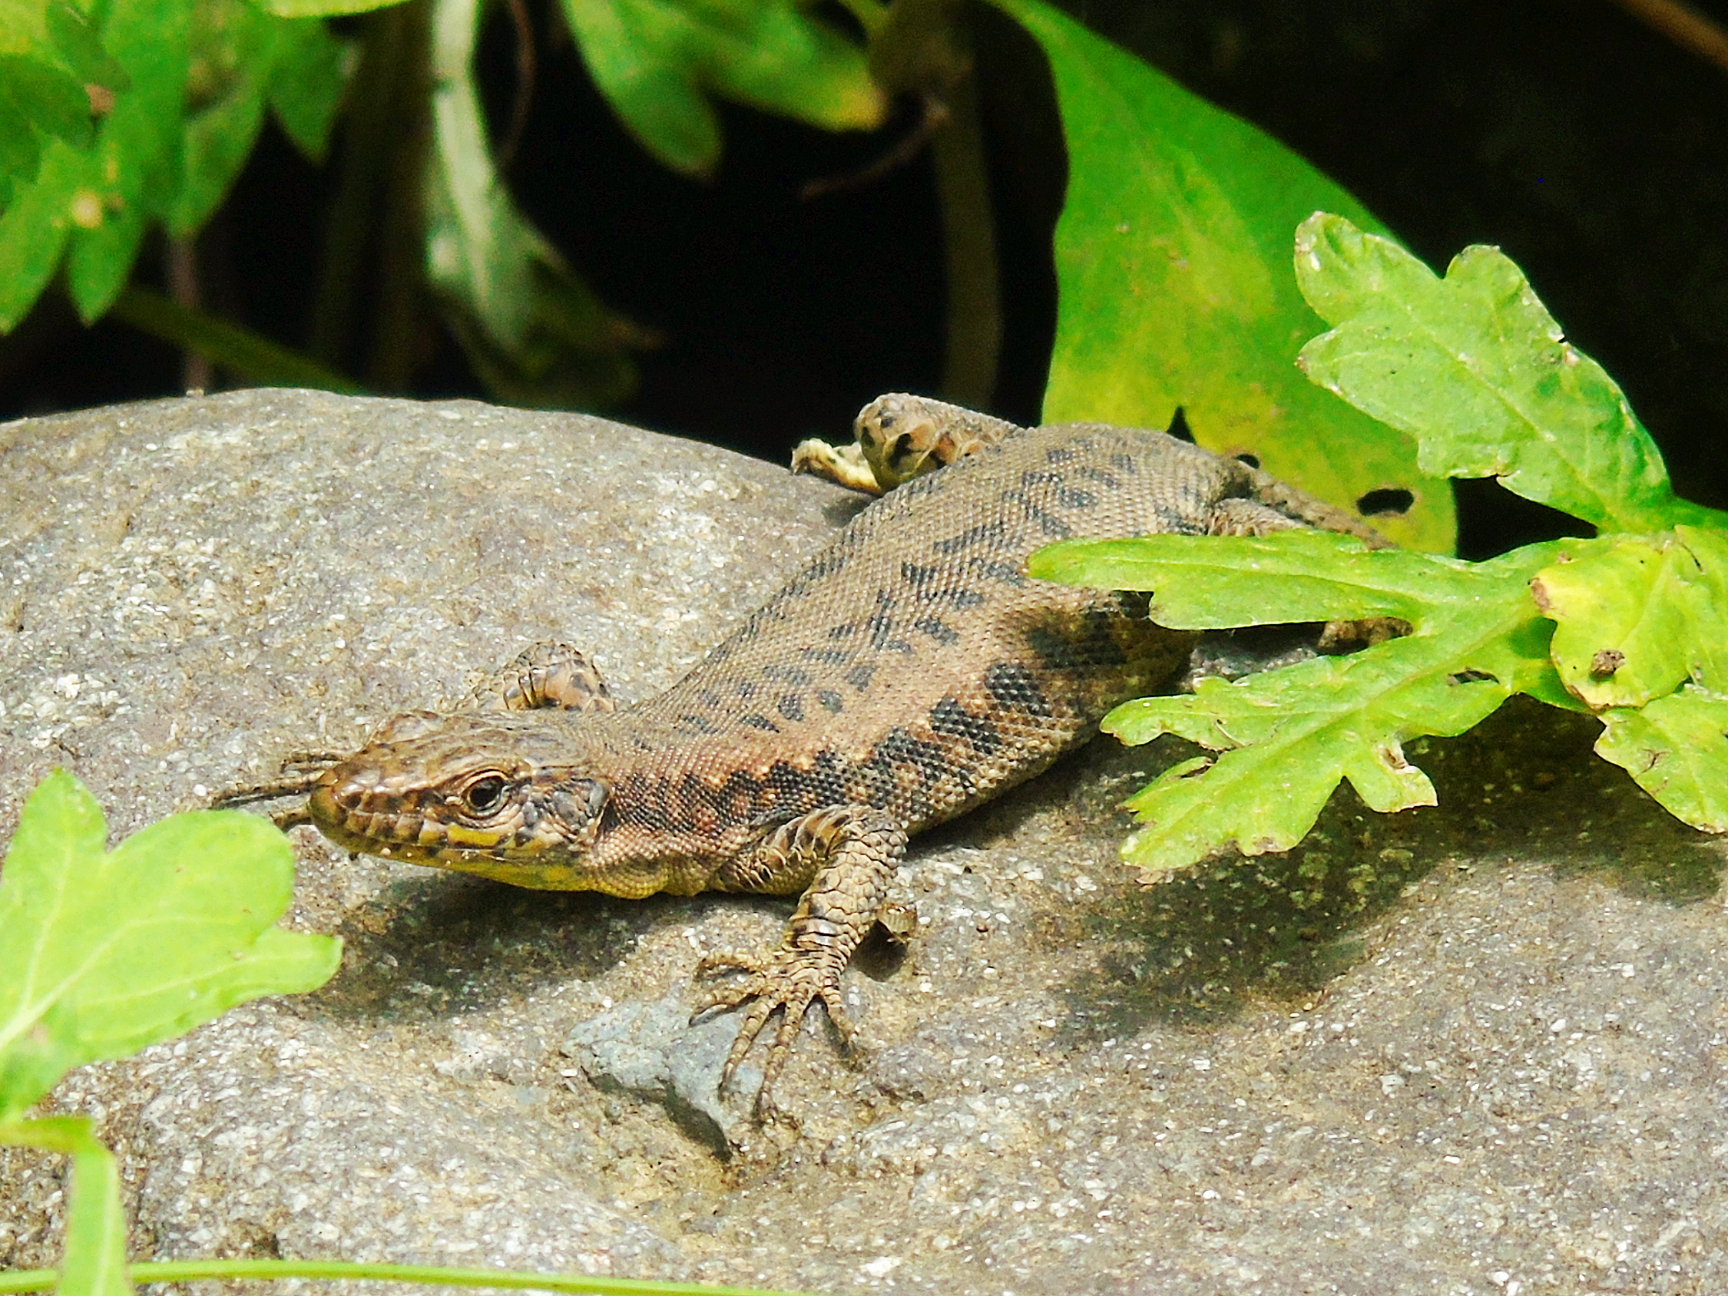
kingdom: Animalia
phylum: Chordata
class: Squamata
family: Lacertidae
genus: Darevskia
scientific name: Darevskia rudis
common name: Spiny-tailed lizard
